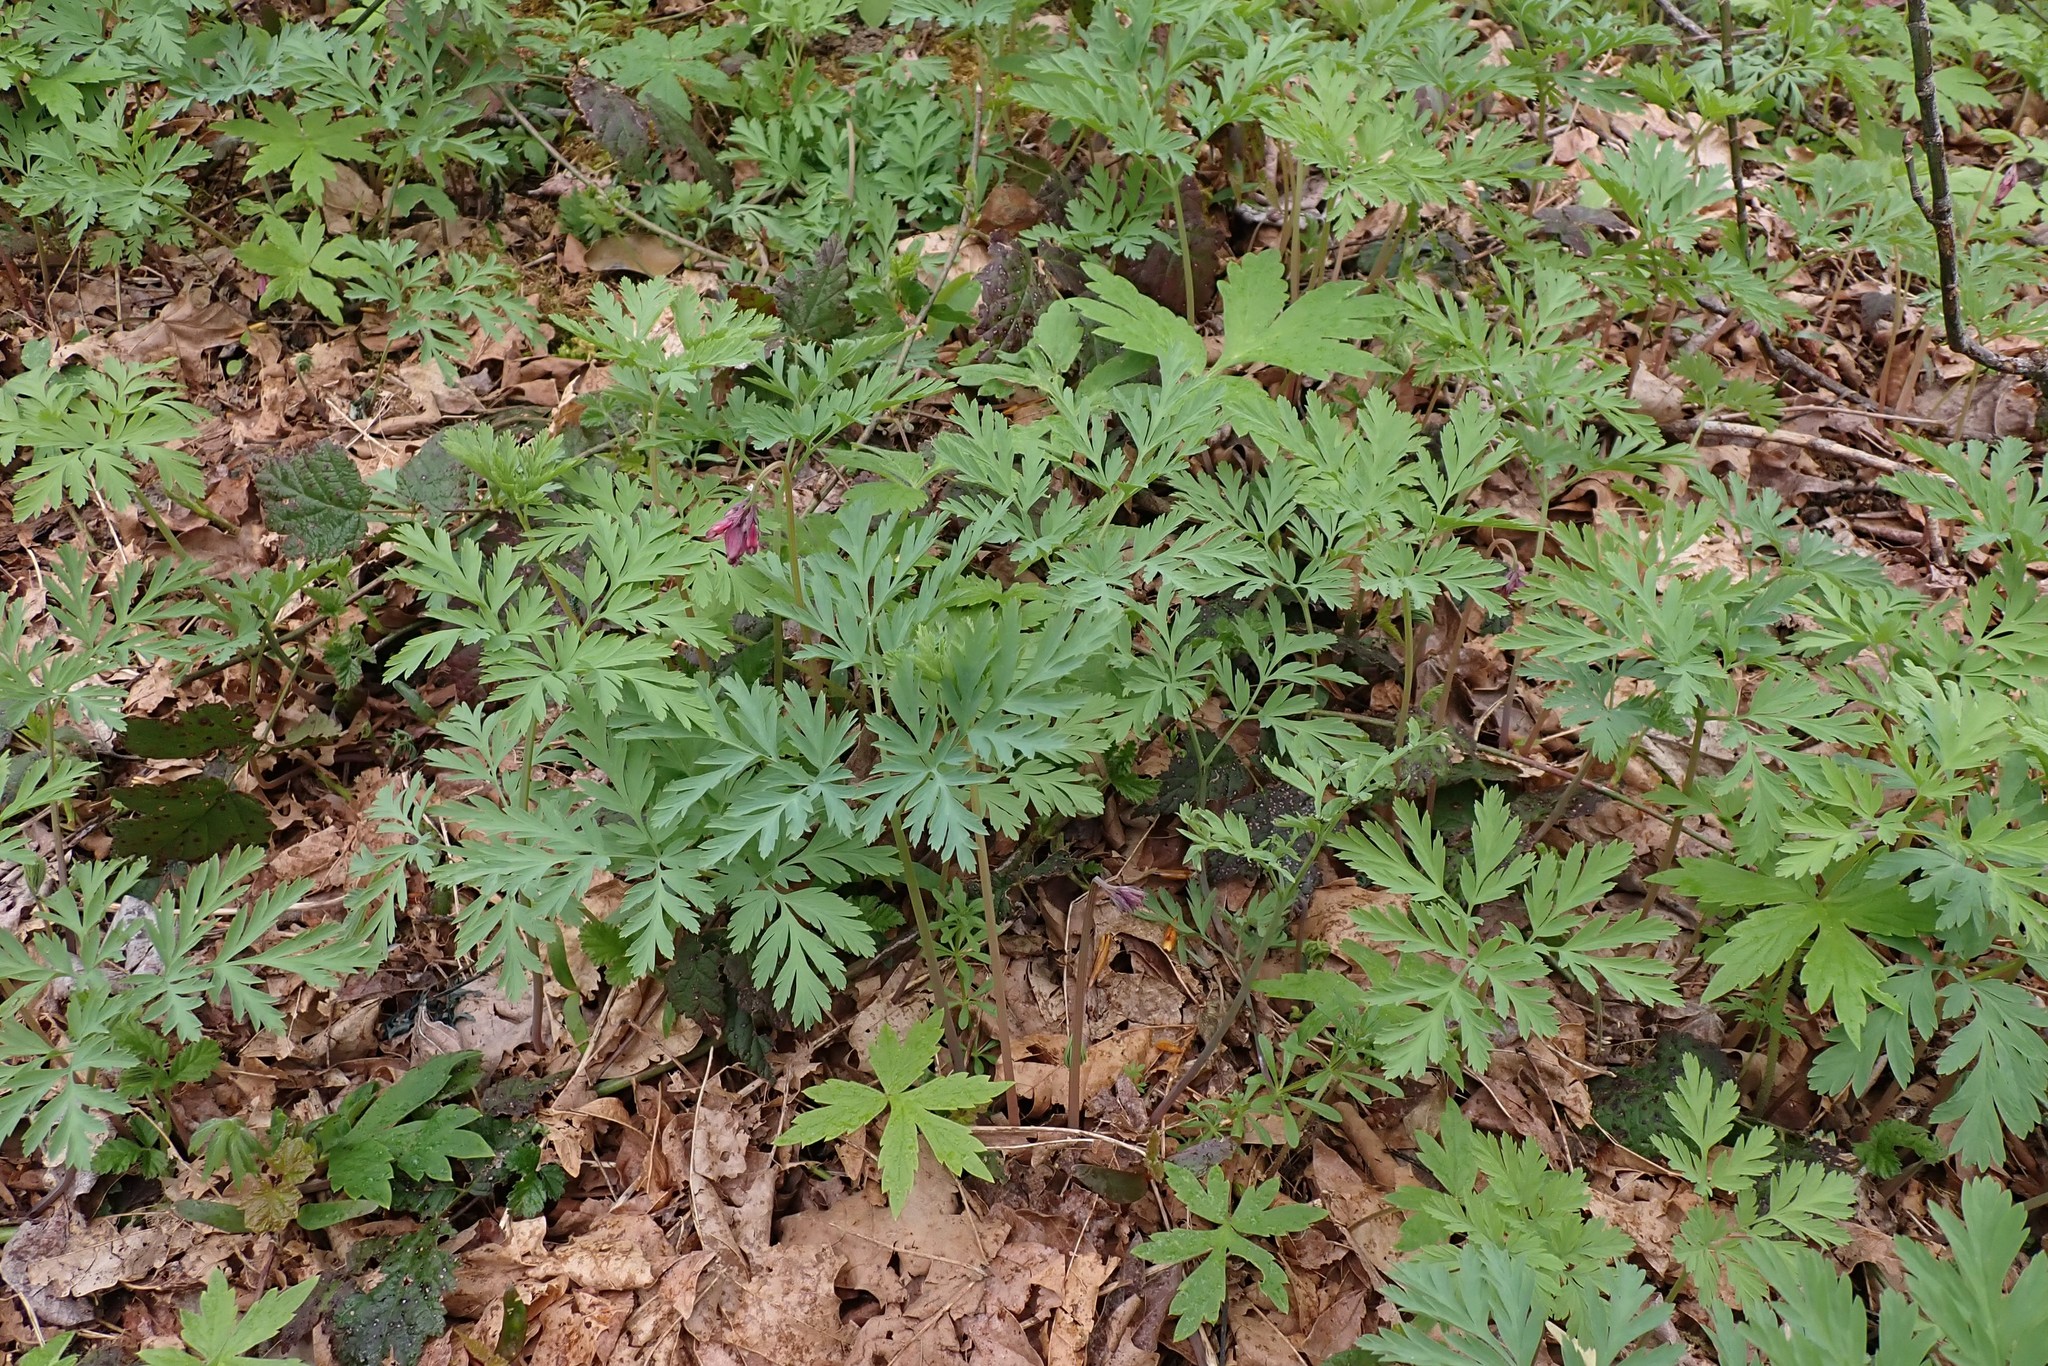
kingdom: Plantae
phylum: Tracheophyta
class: Magnoliopsida
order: Ranunculales
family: Papaveraceae
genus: Dicentra
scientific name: Dicentra formosa
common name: Bleeding-heart
